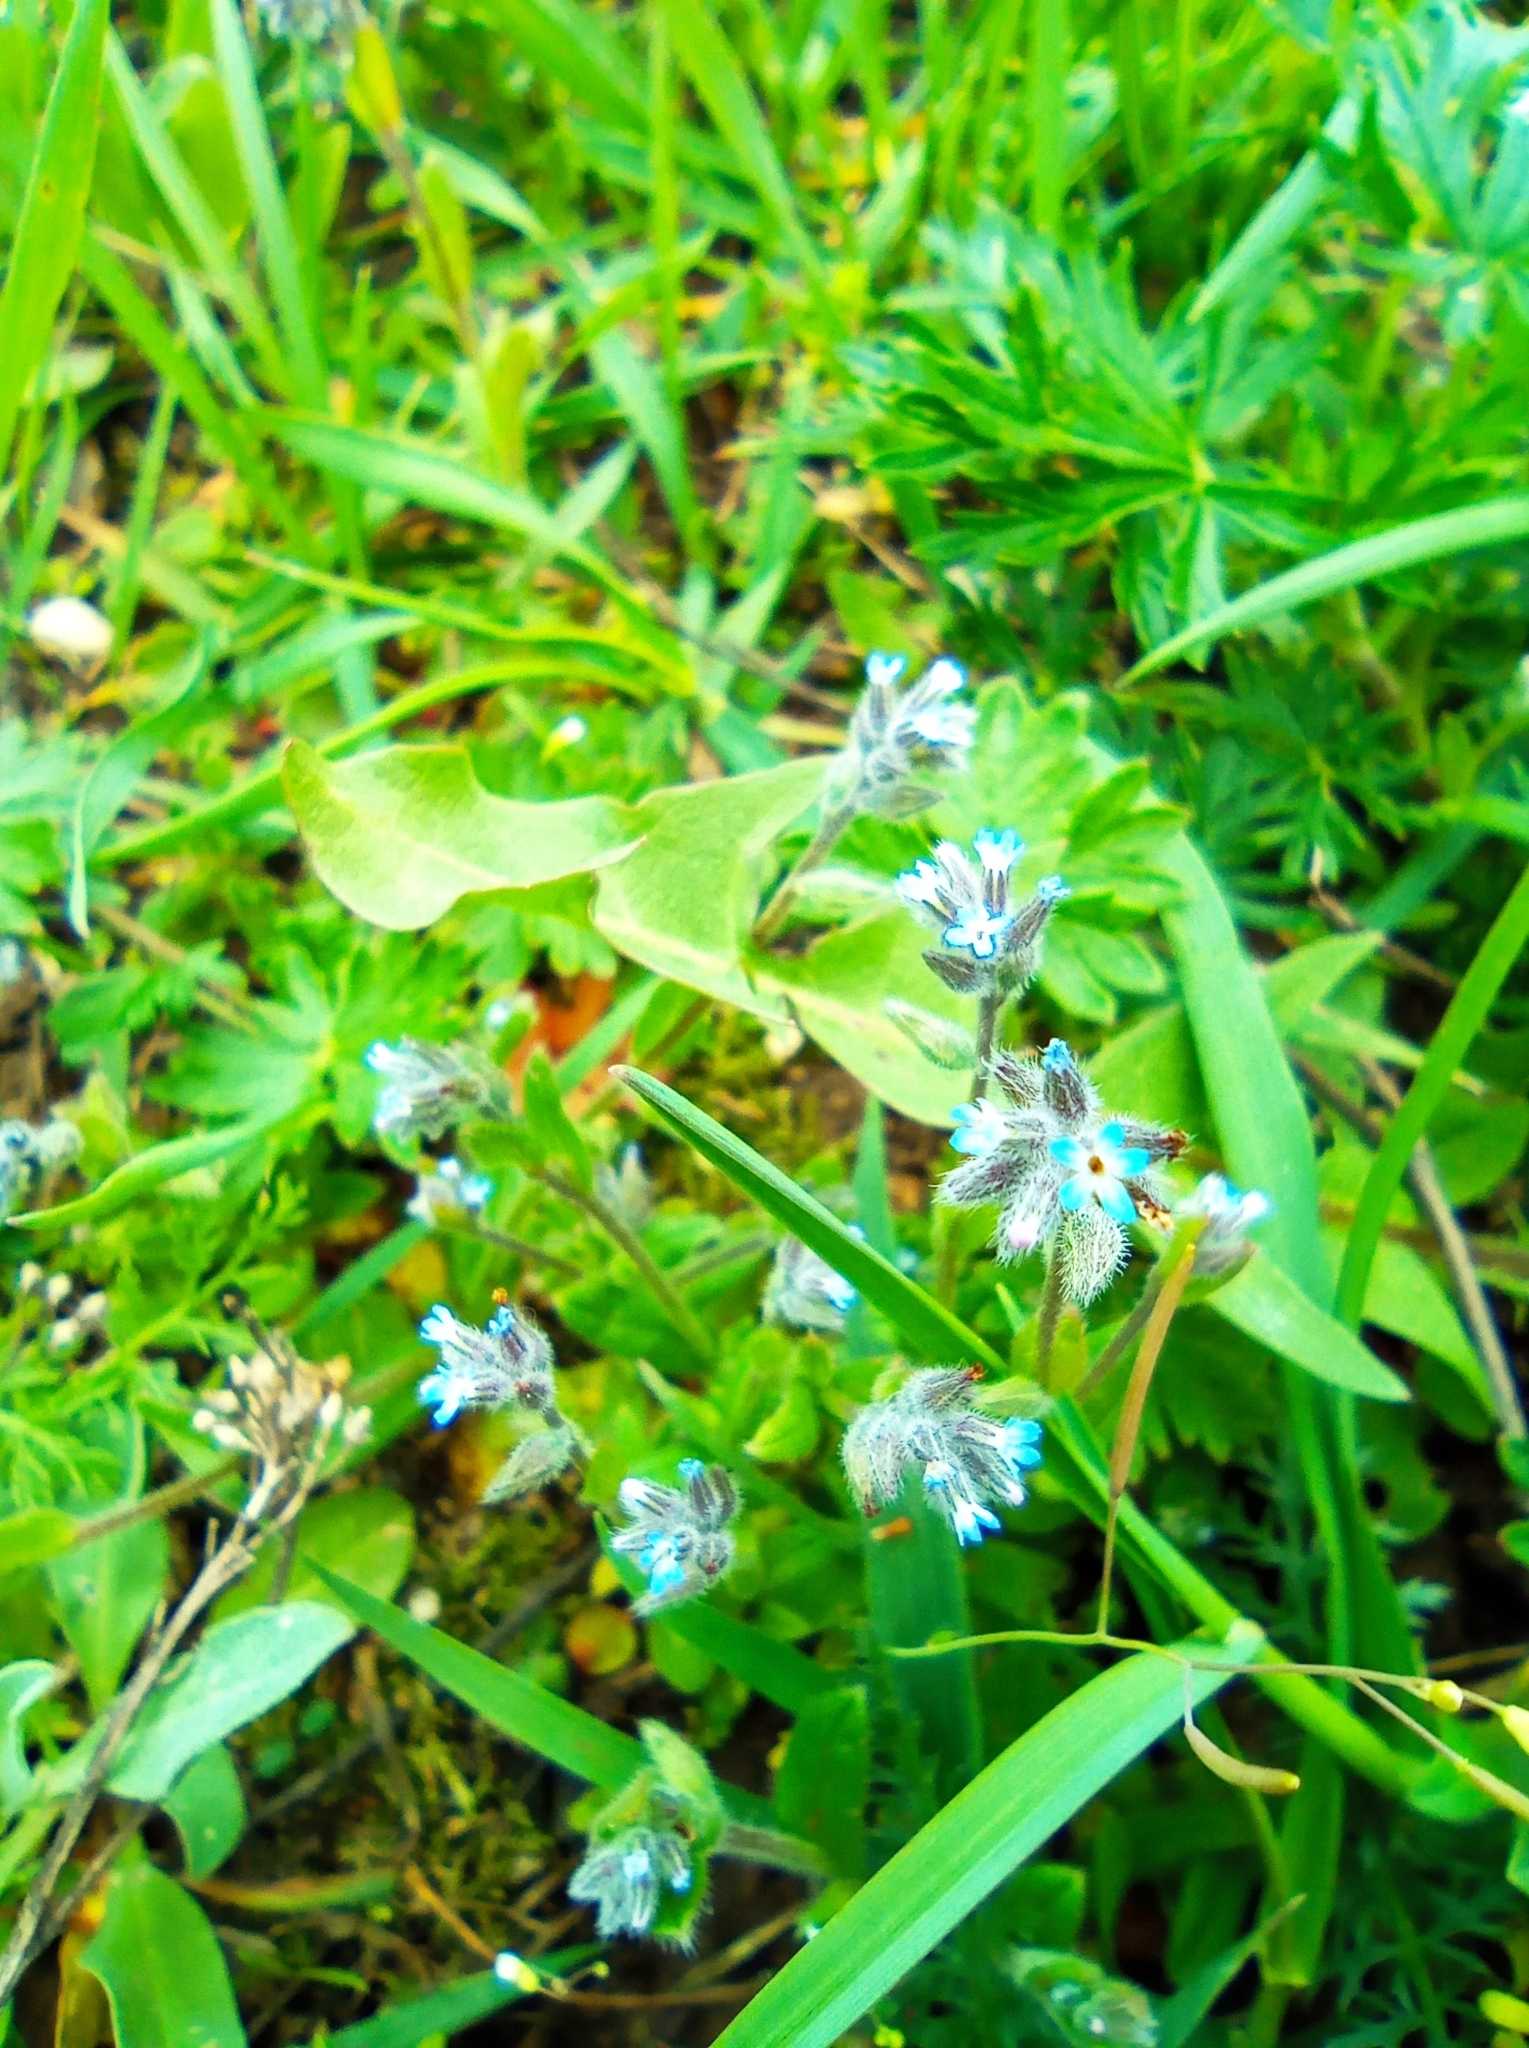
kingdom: Plantae
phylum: Tracheophyta
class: Magnoliopsida
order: Boraginales
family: Boraginaceae
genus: Myosotis
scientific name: Myosotis stricta
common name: Strict forget-me-not
